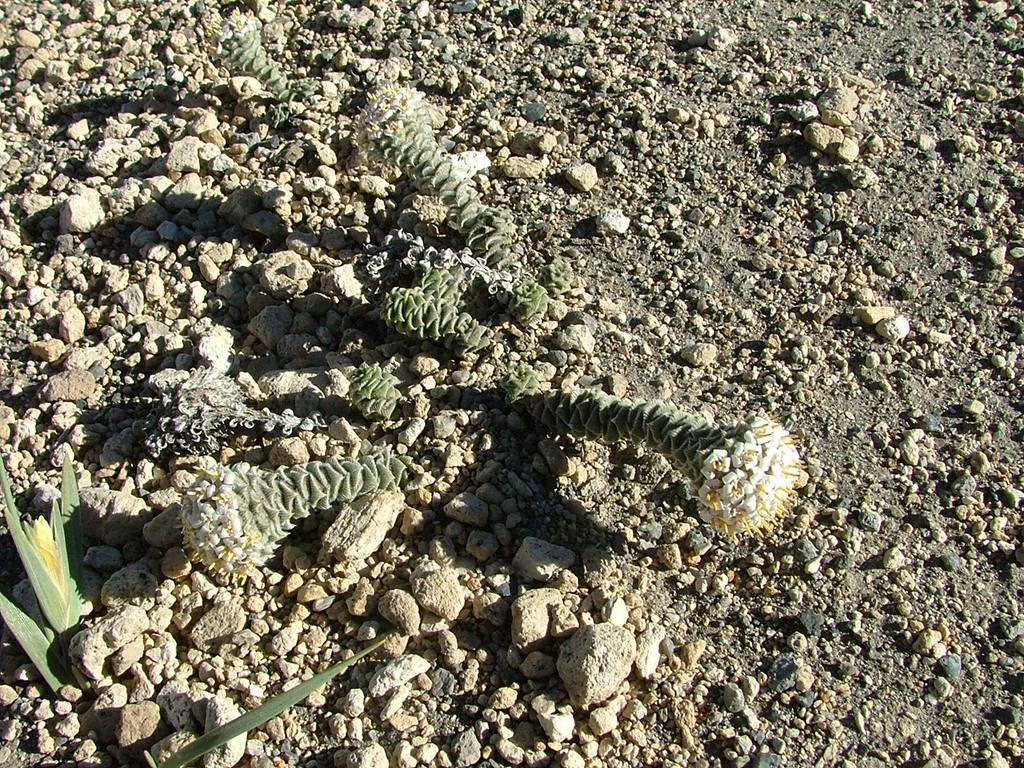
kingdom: Plantae
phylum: Tracheophyta
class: Magnoliopsida
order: Asterales
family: Asteraceae
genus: Nassauvia
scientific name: Nassauvia revoluta
